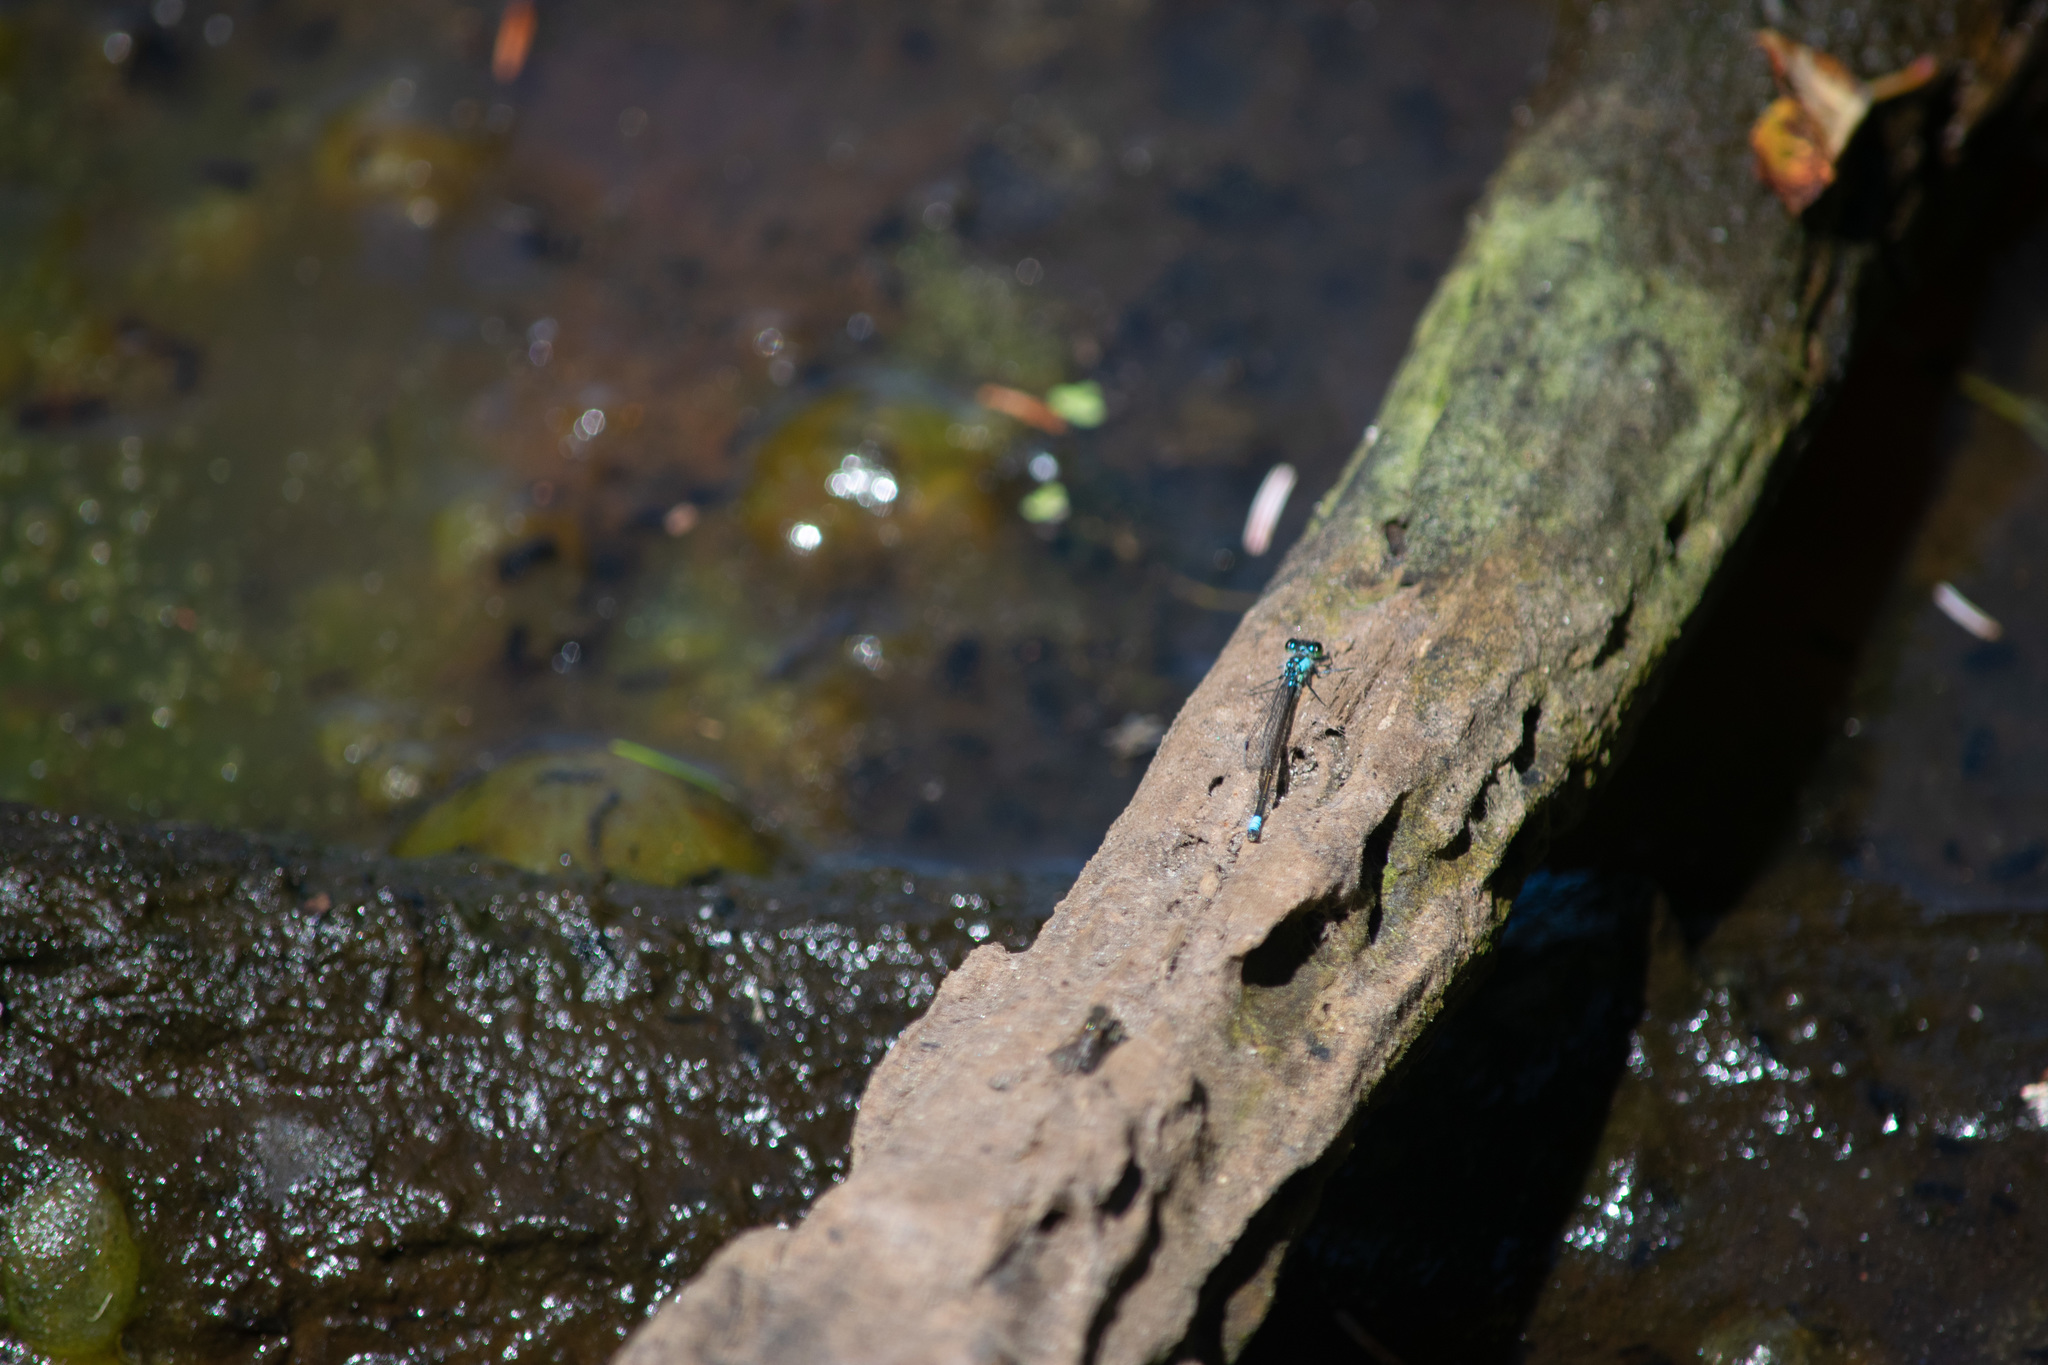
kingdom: Animalia
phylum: Arthropoda
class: Insecta
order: Odonata
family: Coenagrionidae
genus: Ischnura
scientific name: Ischnura cervula
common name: Pacific forktail
